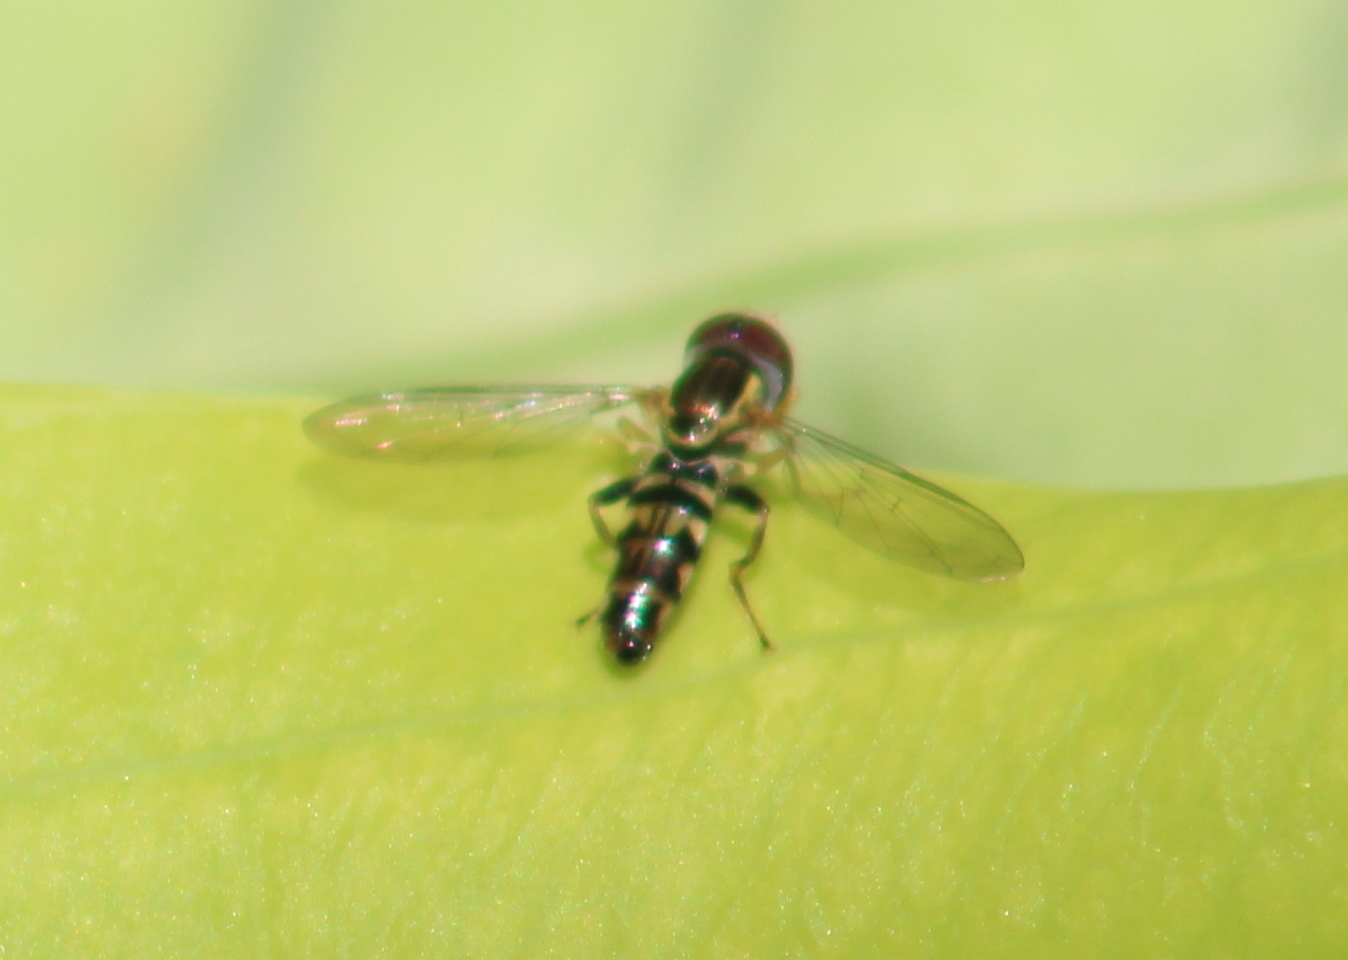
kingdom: Animalia
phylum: Arthropoda
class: Insecta
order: Diptera
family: Syrphidae
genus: Toxomerus
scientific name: Toxomerus geminatus
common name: Eastern calligrapher
